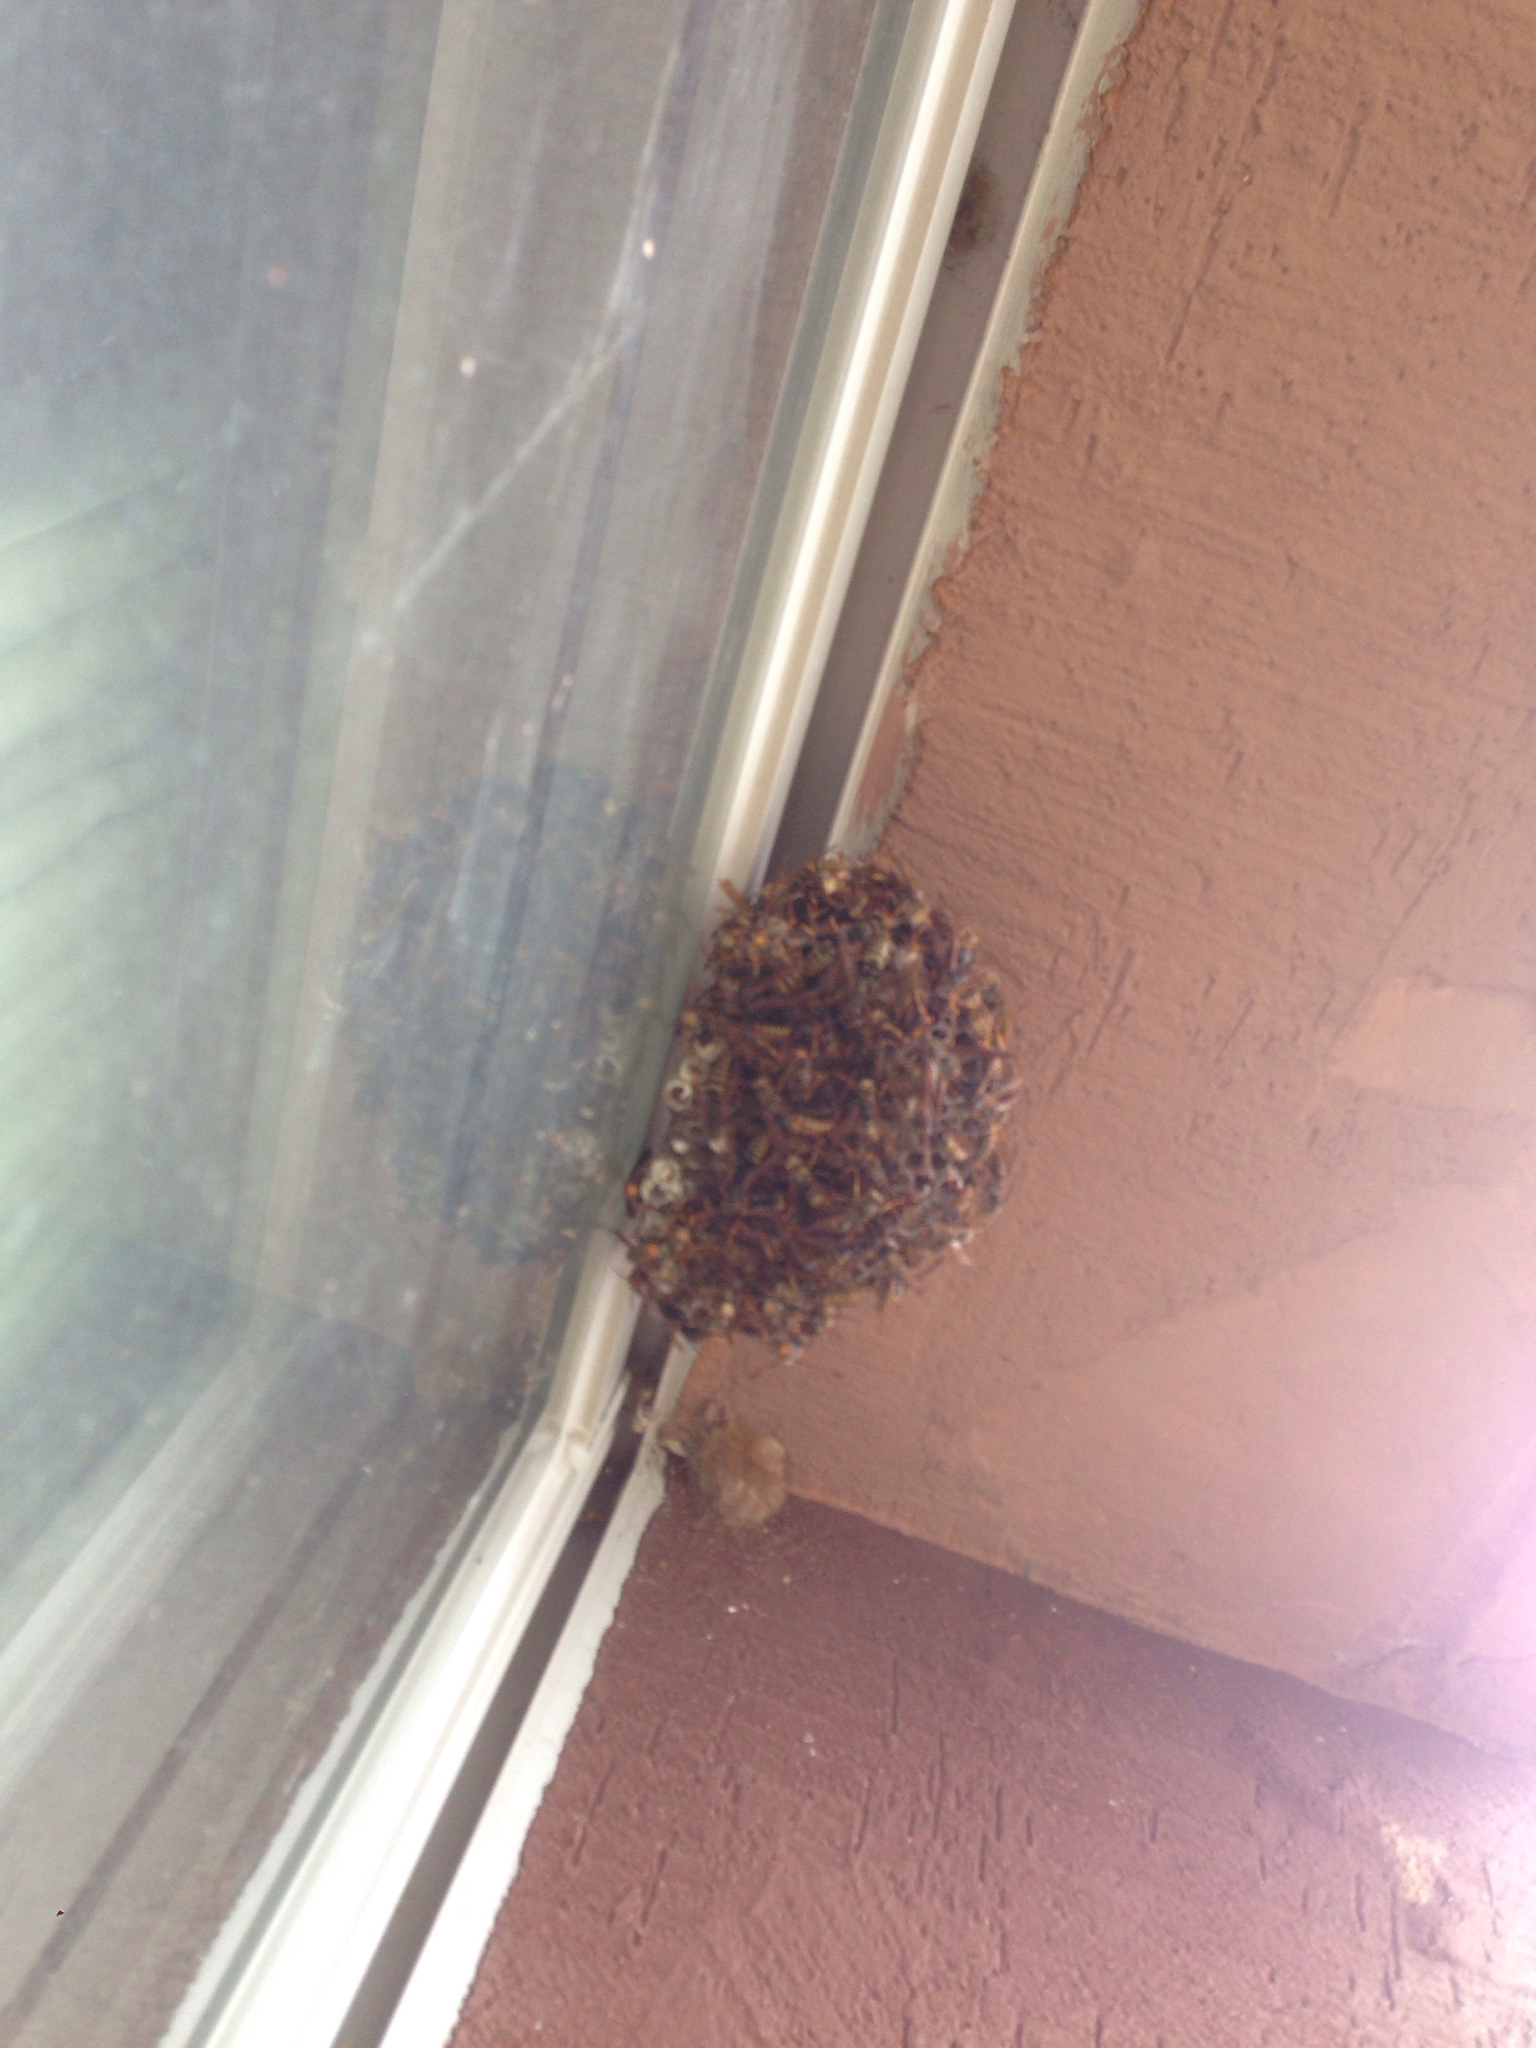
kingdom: Animalia
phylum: Arthropoda
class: Insecta
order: Hymenoptera
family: Eumenidae
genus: Polistes
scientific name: Polistes
